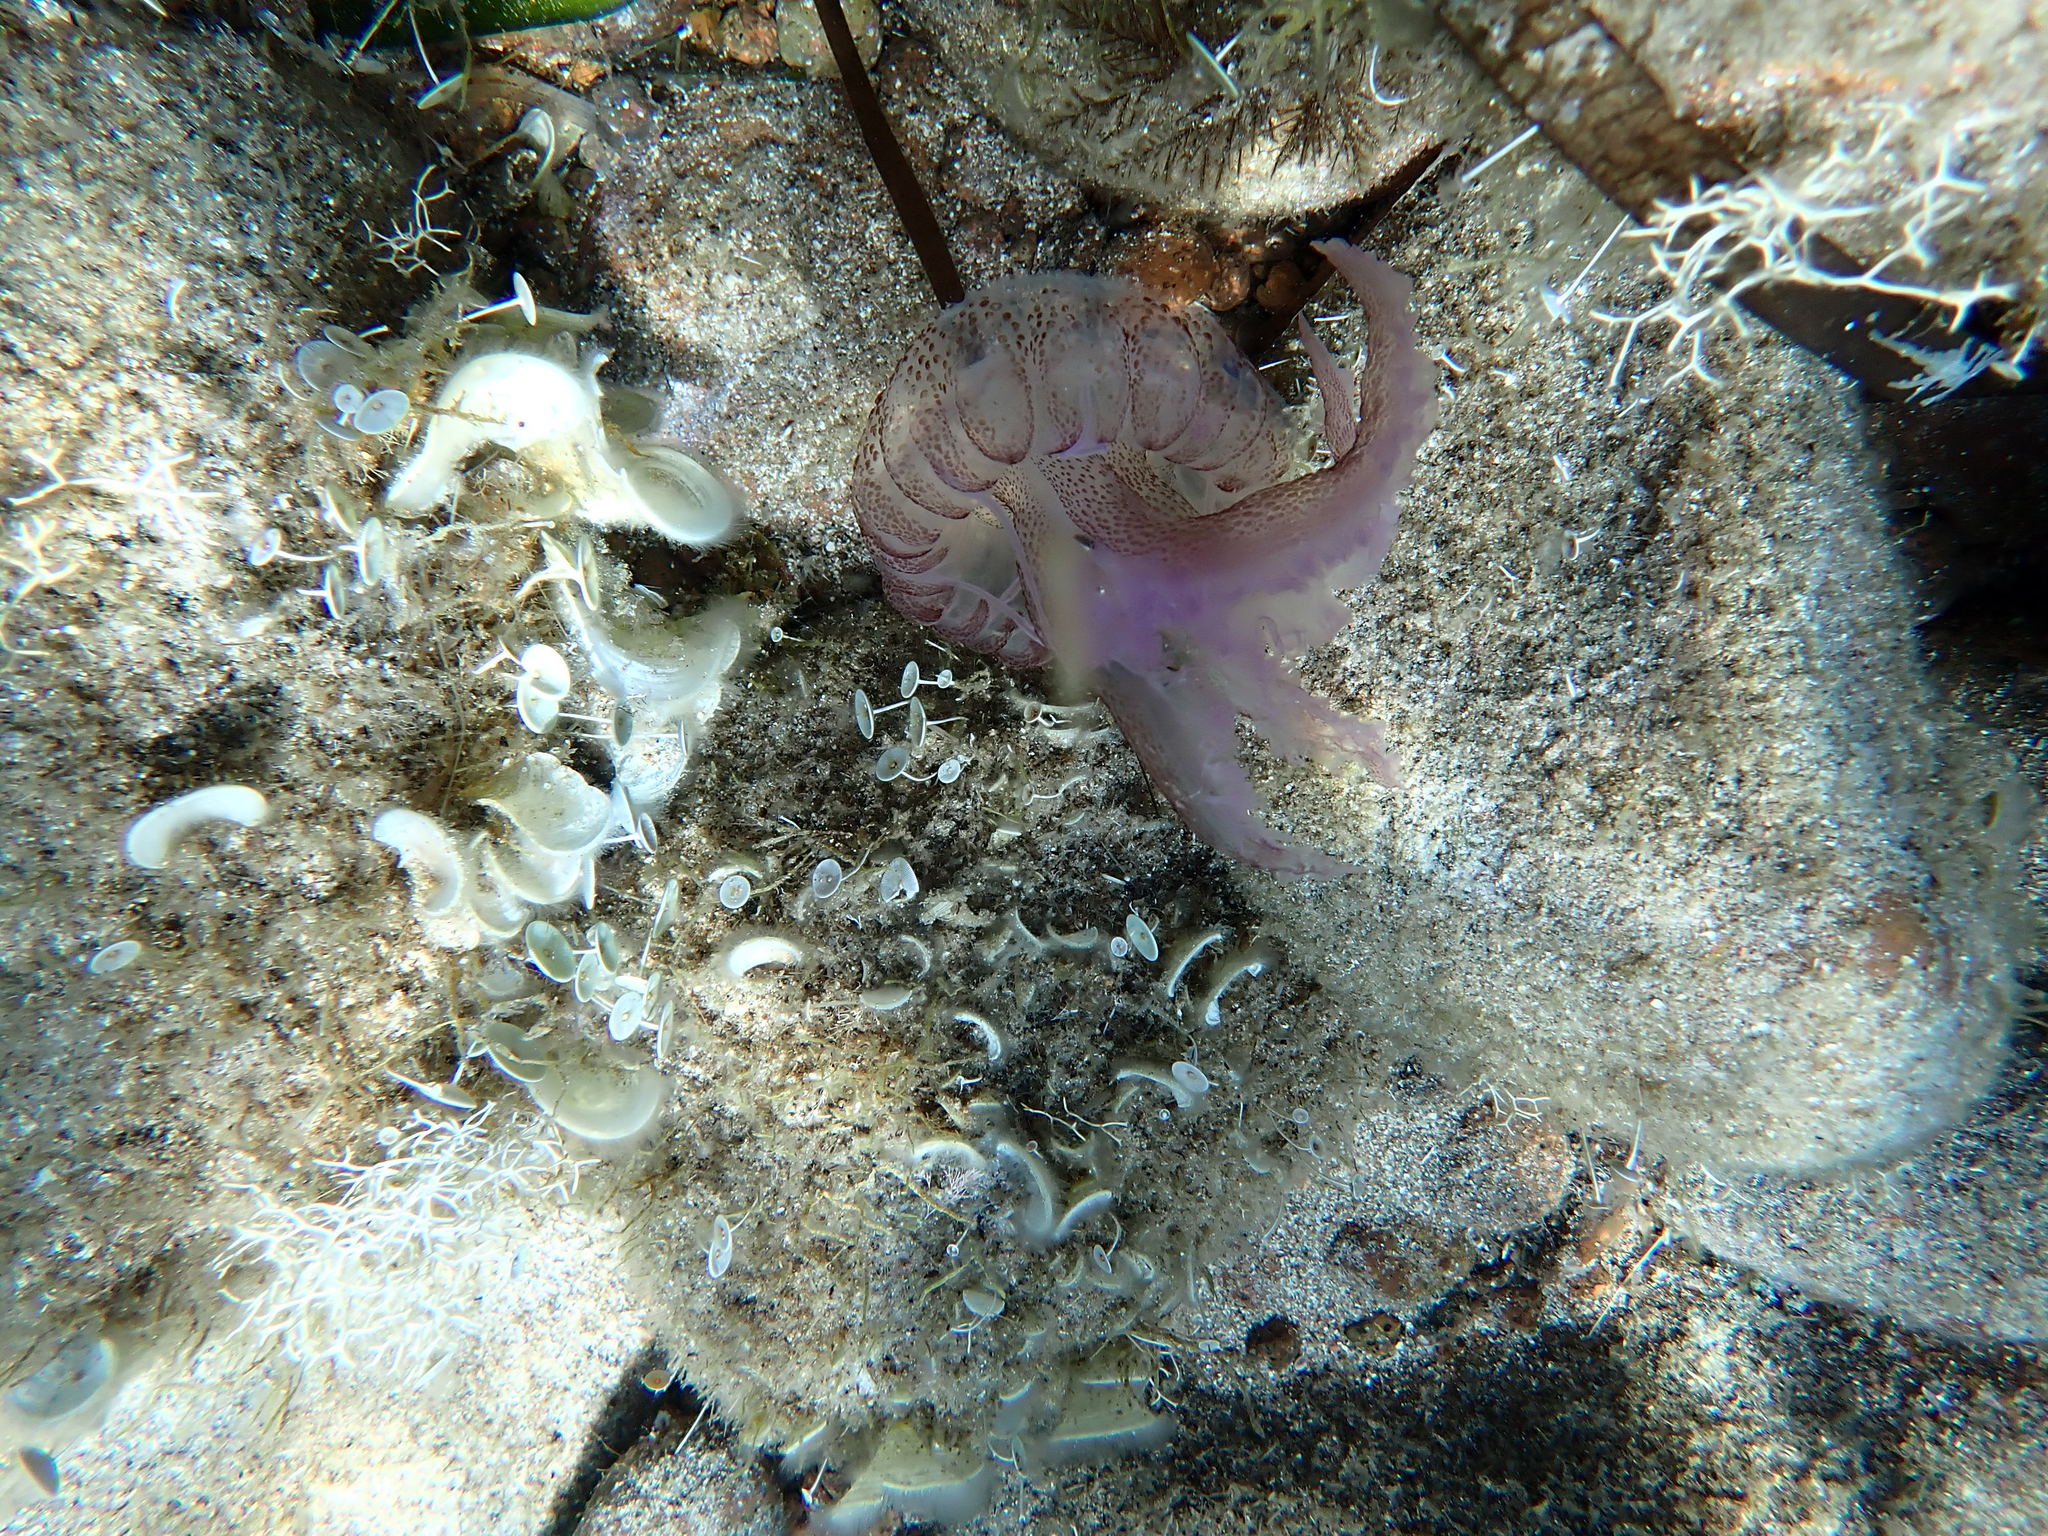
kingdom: Animalia
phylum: Cnidaria
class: Scyphozoa
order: Semaeostomeae
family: Pelagiidae
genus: Pelagia
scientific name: Pelagia noctiluca
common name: Mauve stinger
